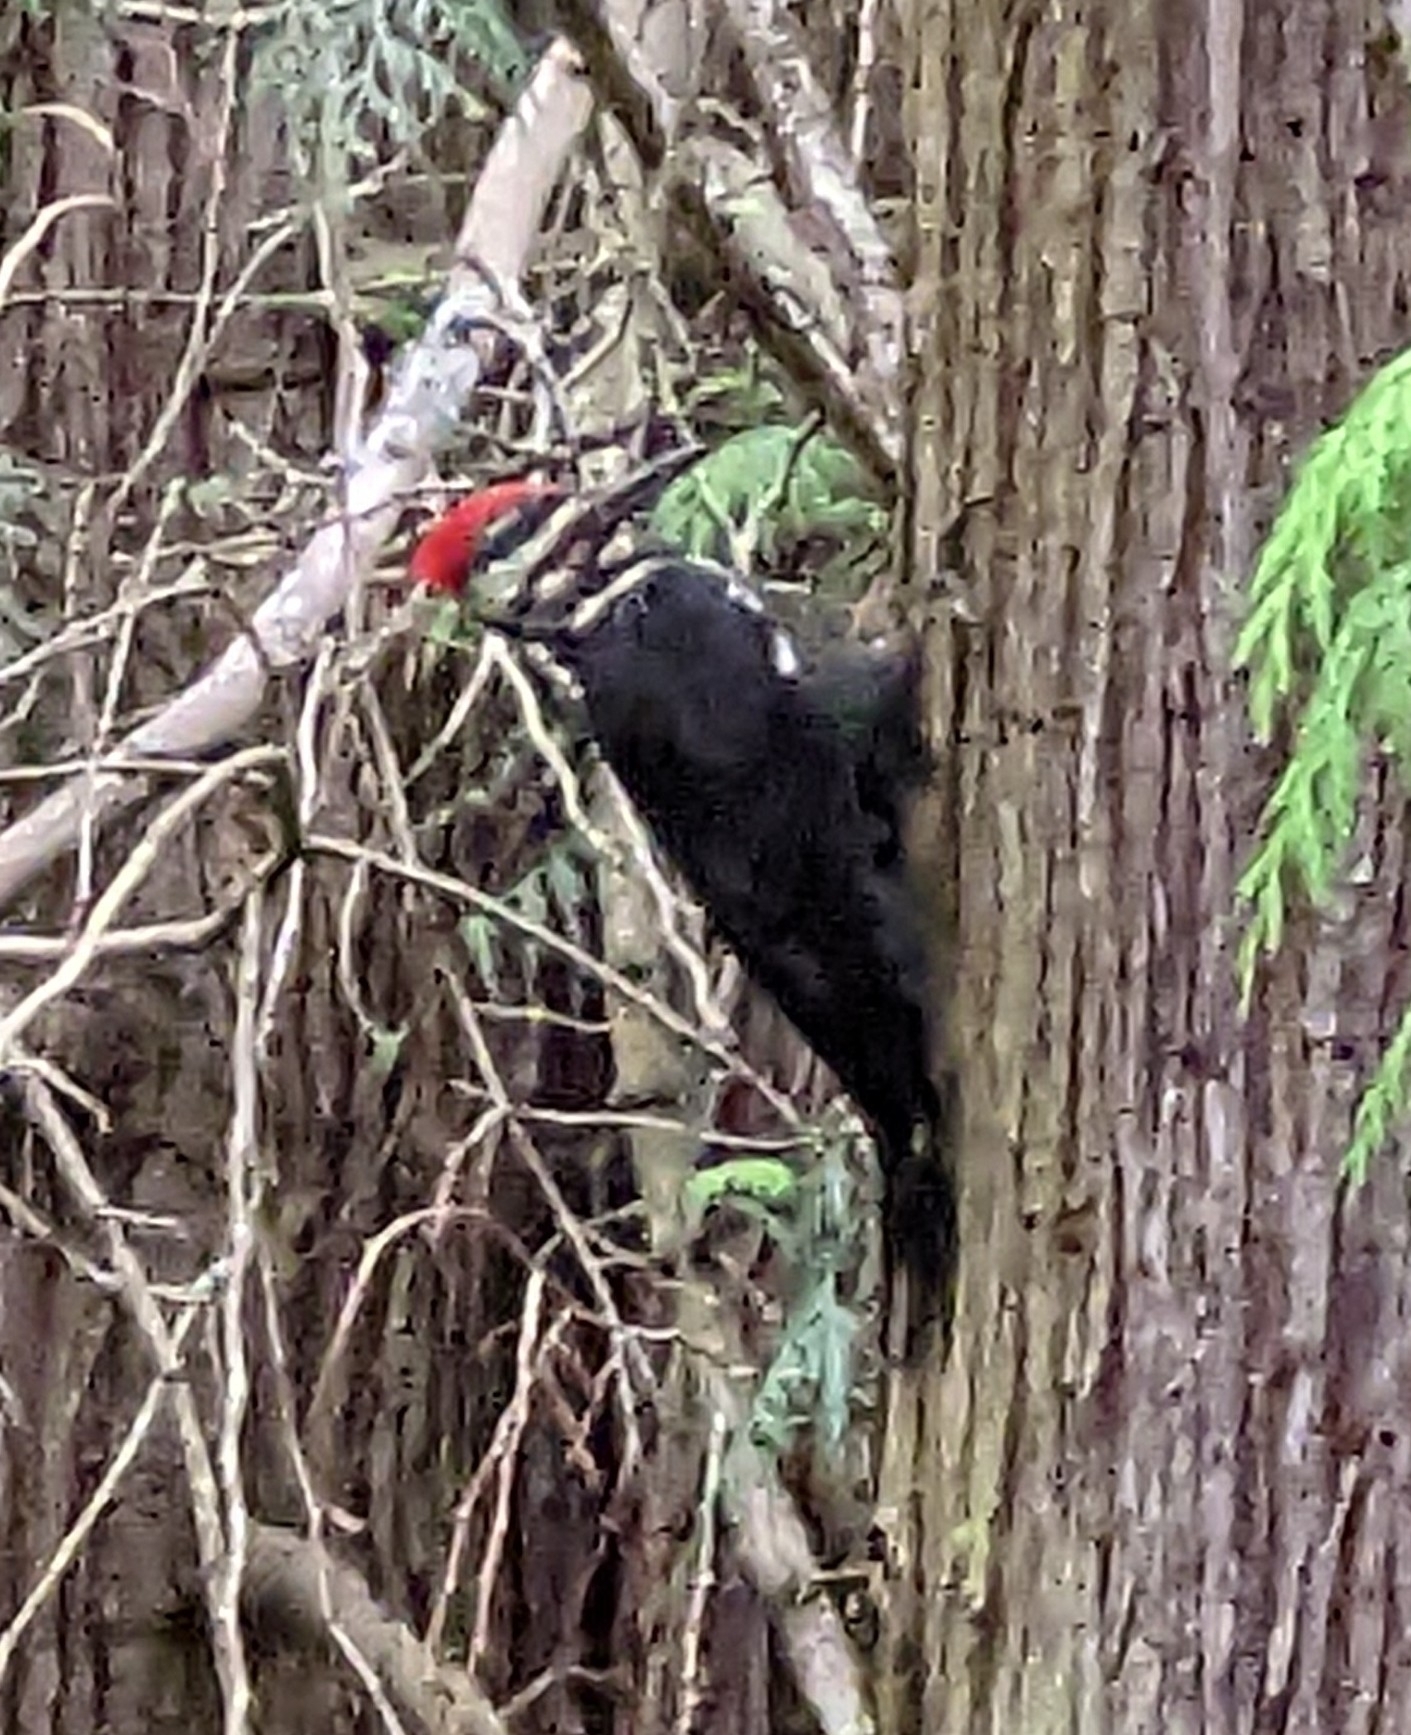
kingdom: Animalia
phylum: Chordata
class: Aves
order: Piciformes
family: Picidae
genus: Dryocopus
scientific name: Dryocopus pileatus
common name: Pileated woodpecker
